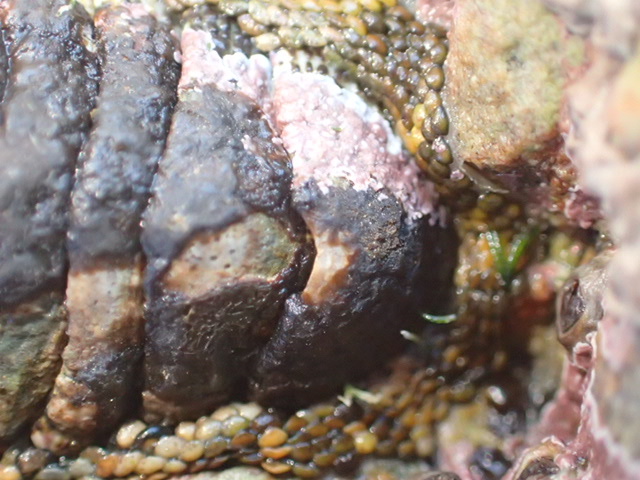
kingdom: Animalia
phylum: Mollusca
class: Polyplacophora
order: Chitonida
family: Chitonidae
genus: Sypharochiton
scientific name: Sypharochiton pelliserpentis
